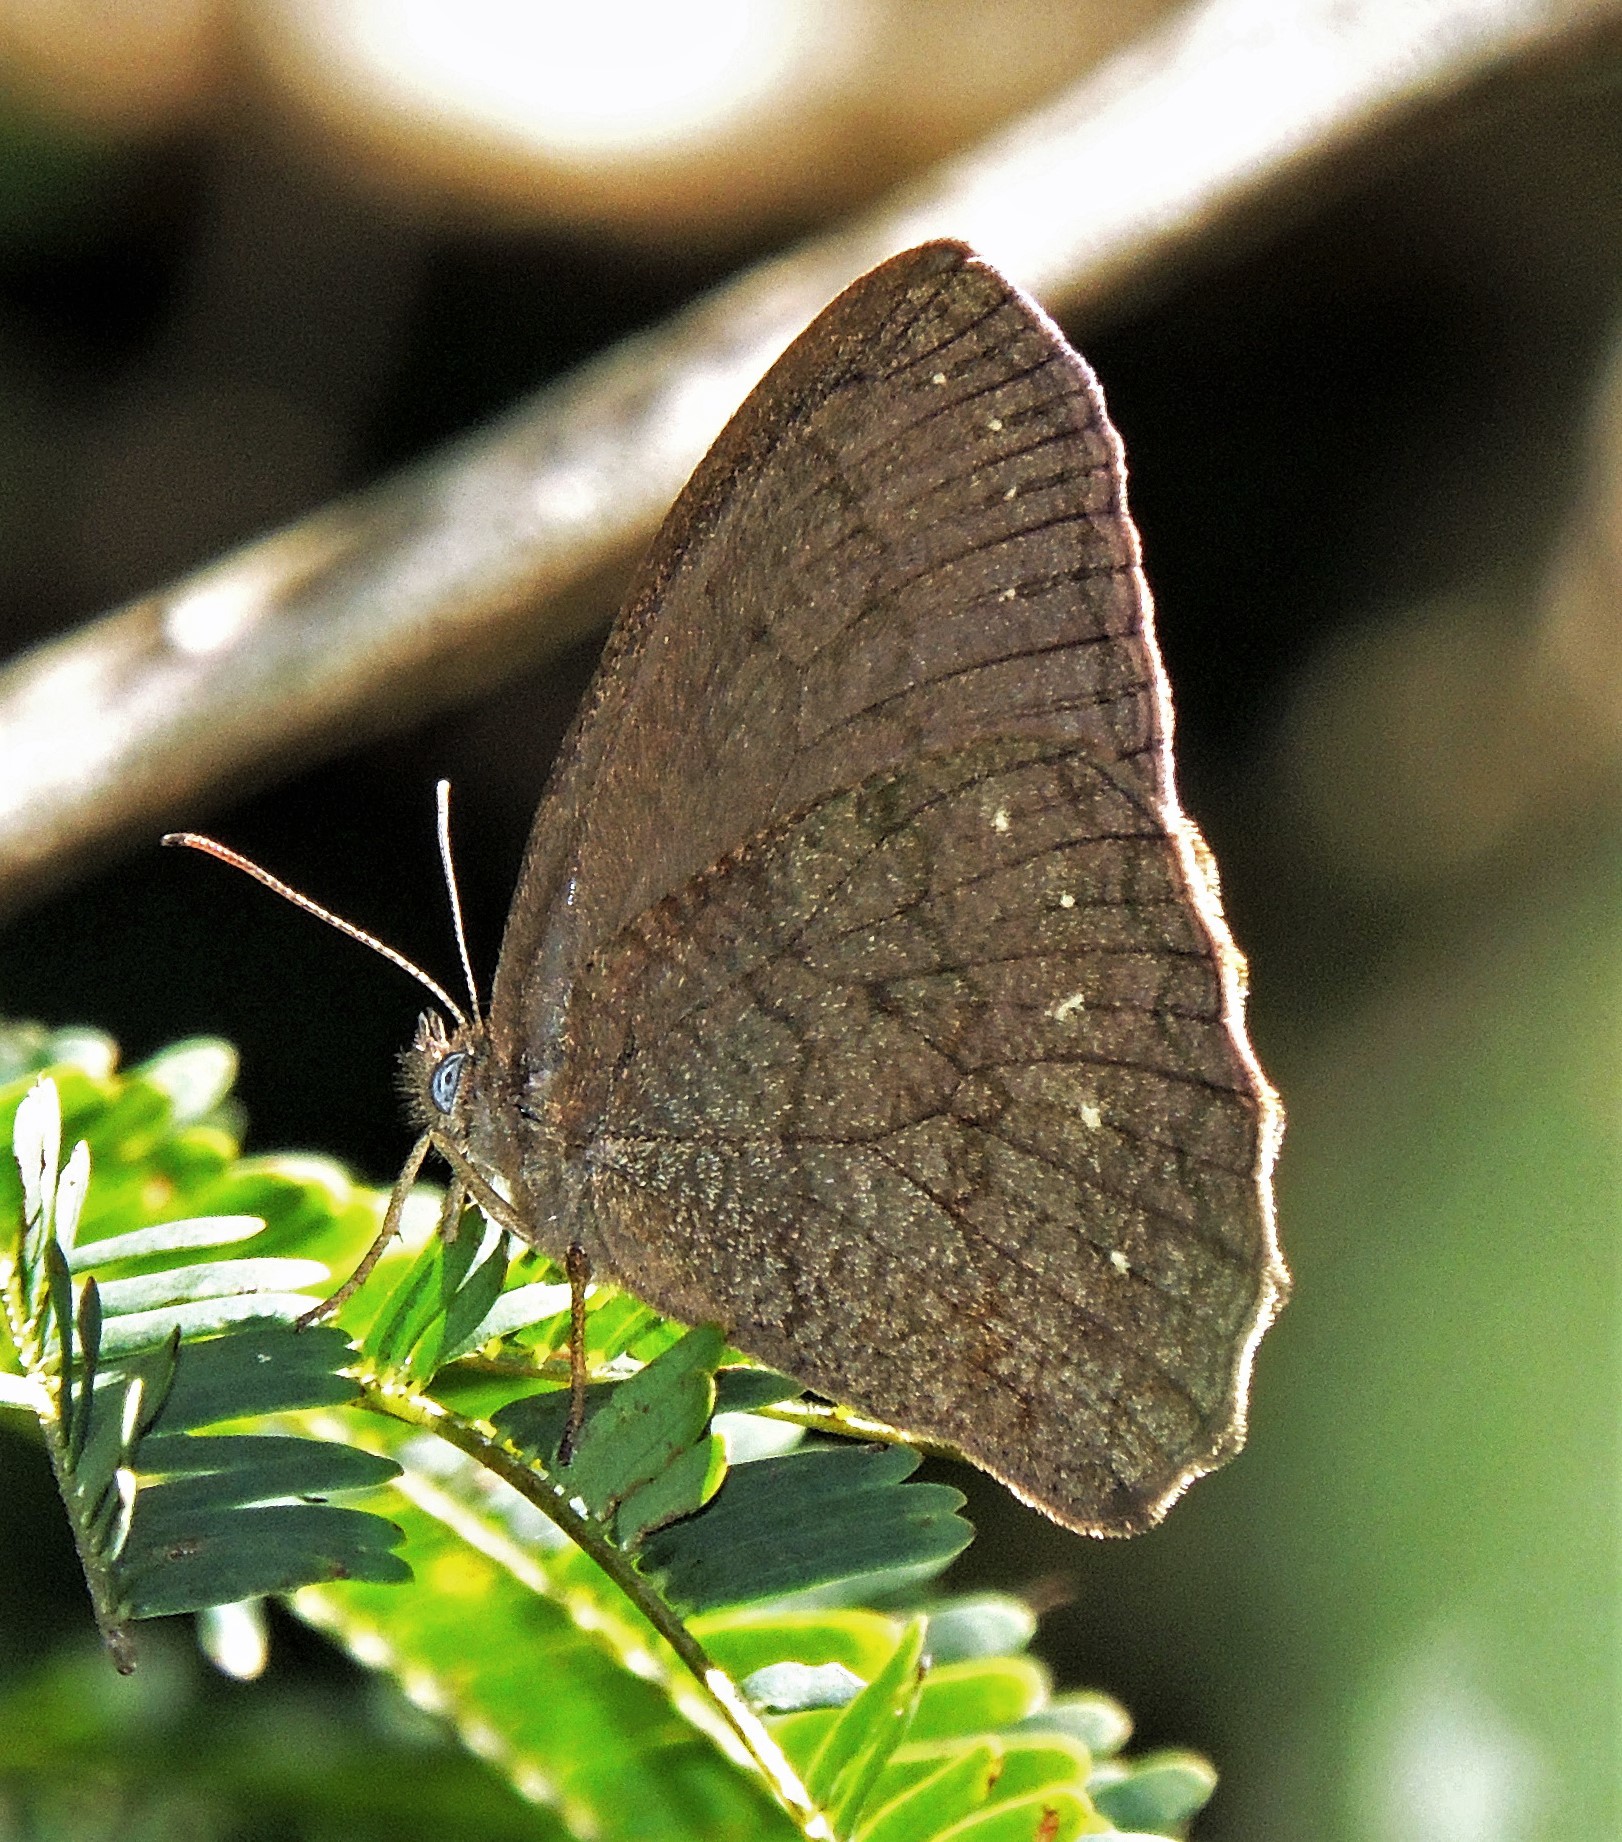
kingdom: Animalia
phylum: Arthropoda
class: Insecta
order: Lepidoptera
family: Nymphalidae
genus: Forsterinaria
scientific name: Forsterinaria necys
